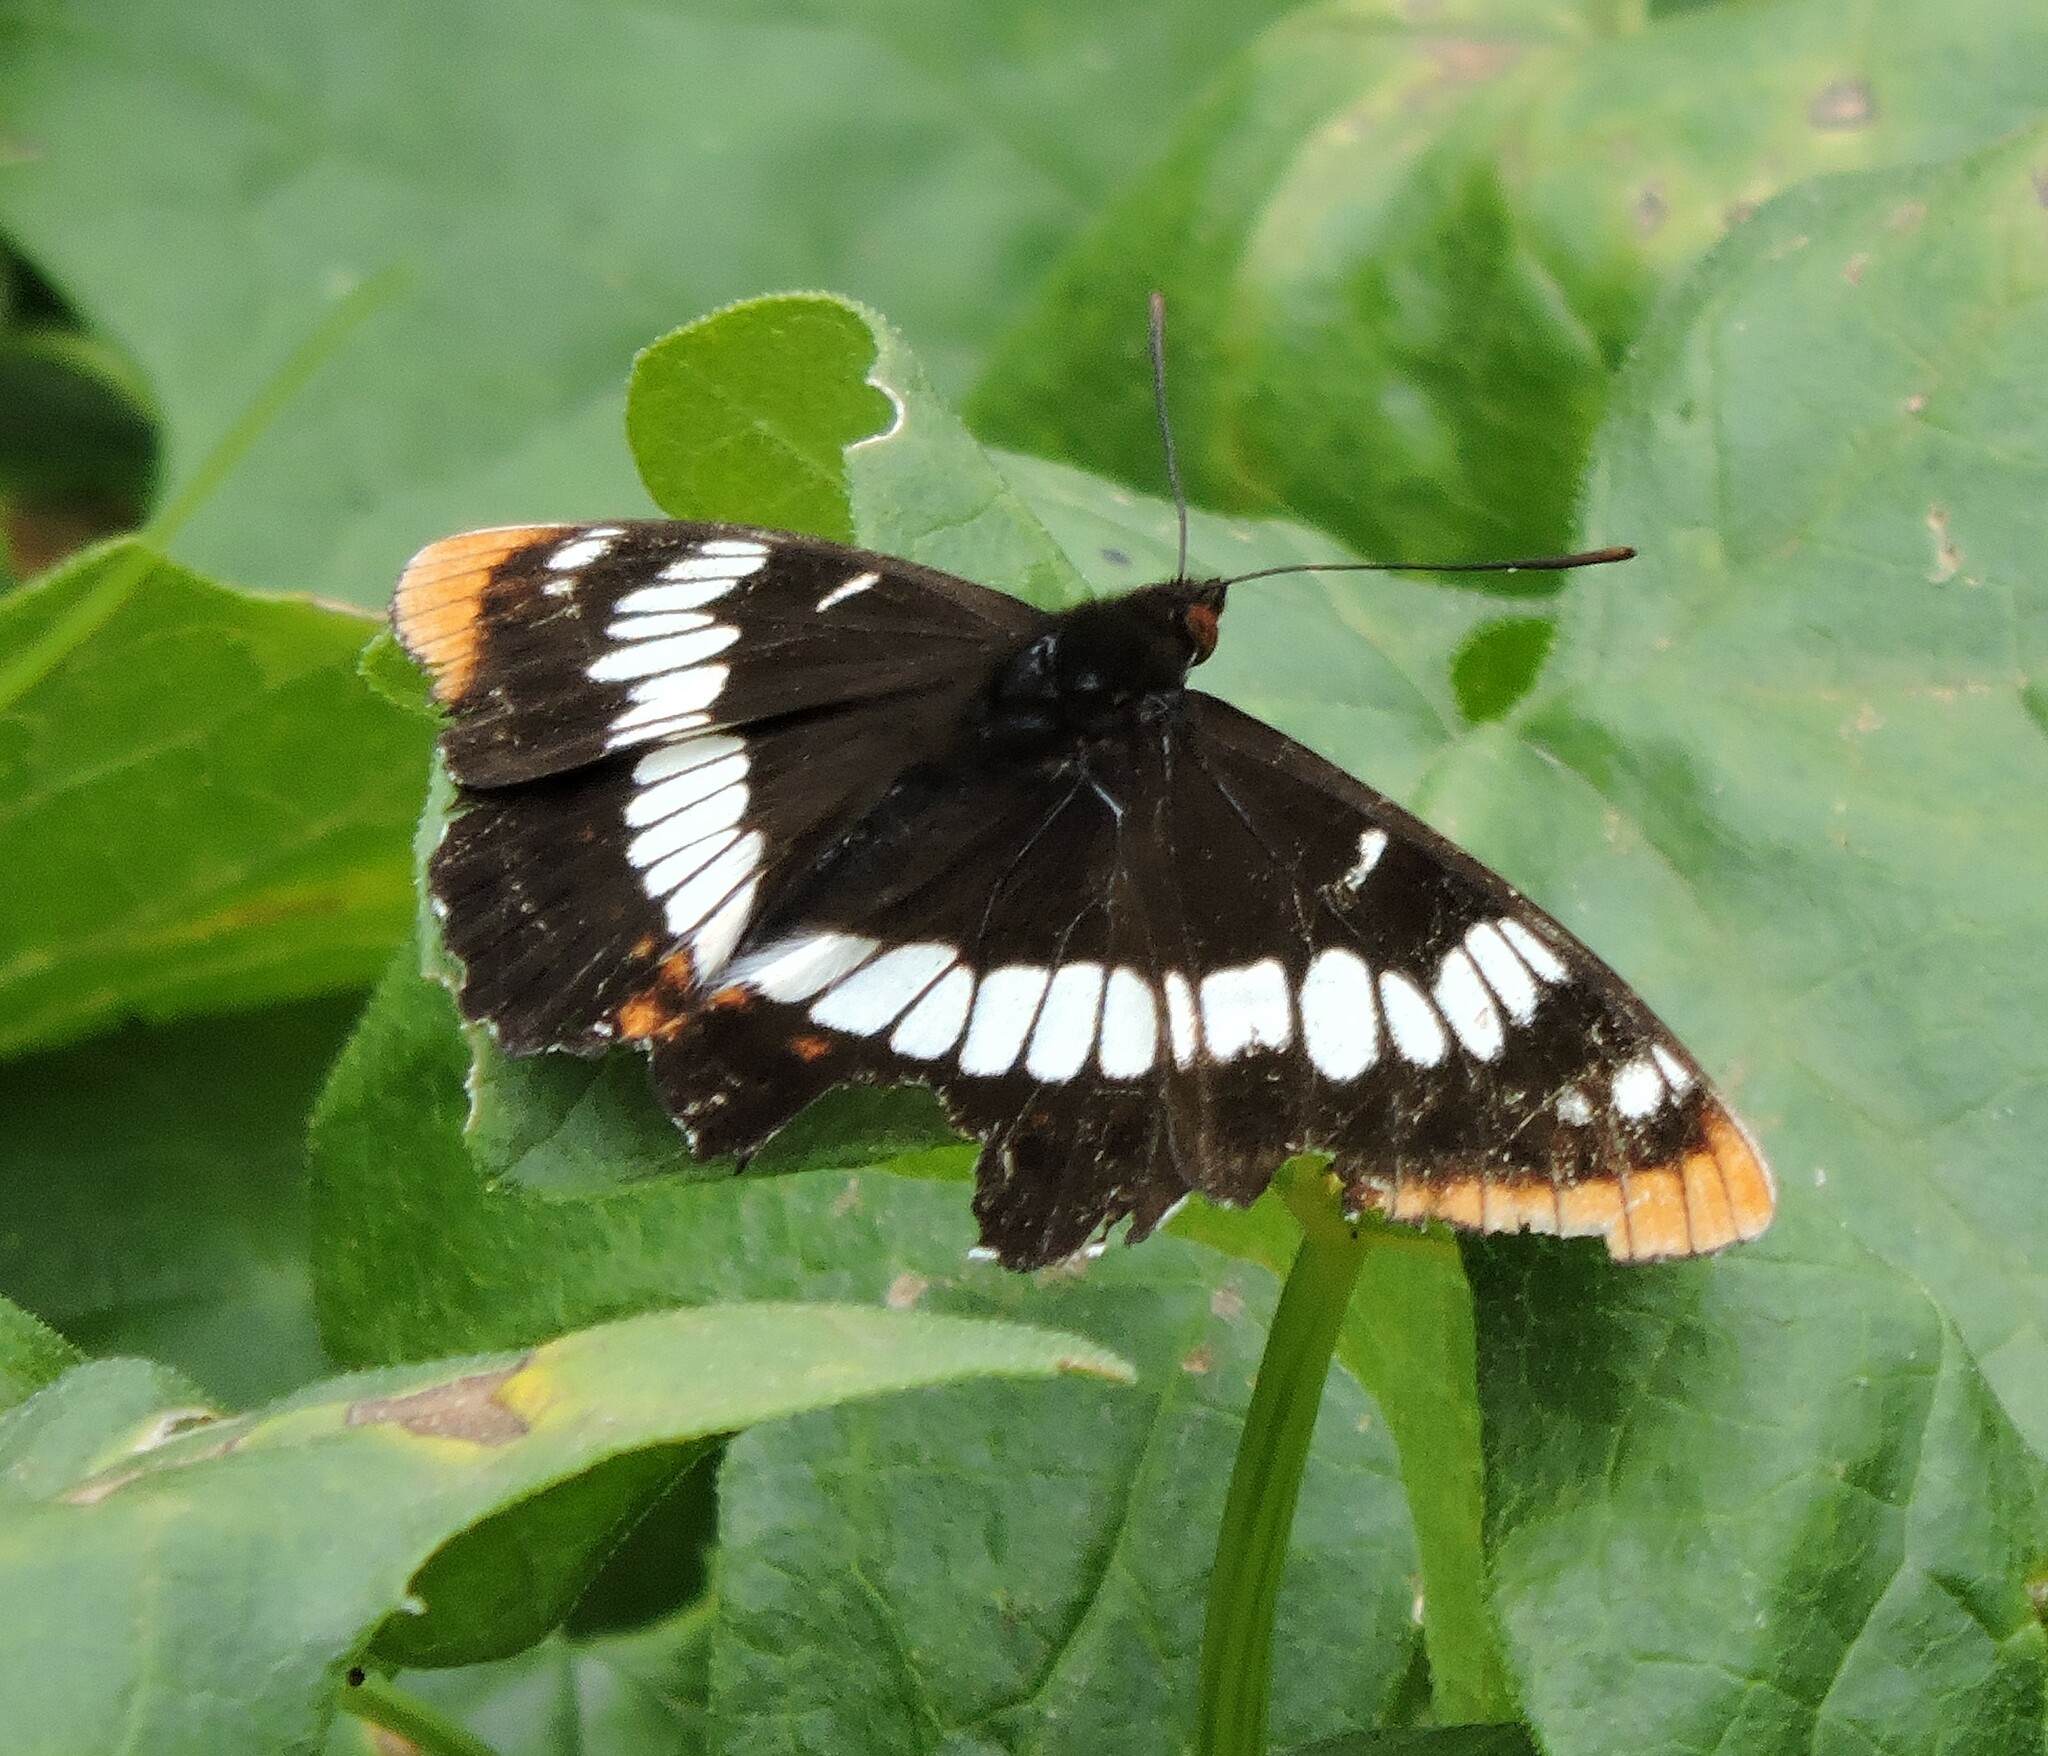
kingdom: Animalia
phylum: Arthropoda
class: Insecta
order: Lepidoptera
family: Nymphalidae
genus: Limenitis
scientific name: Limenitis lorquini
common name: Lorquin's admiral
